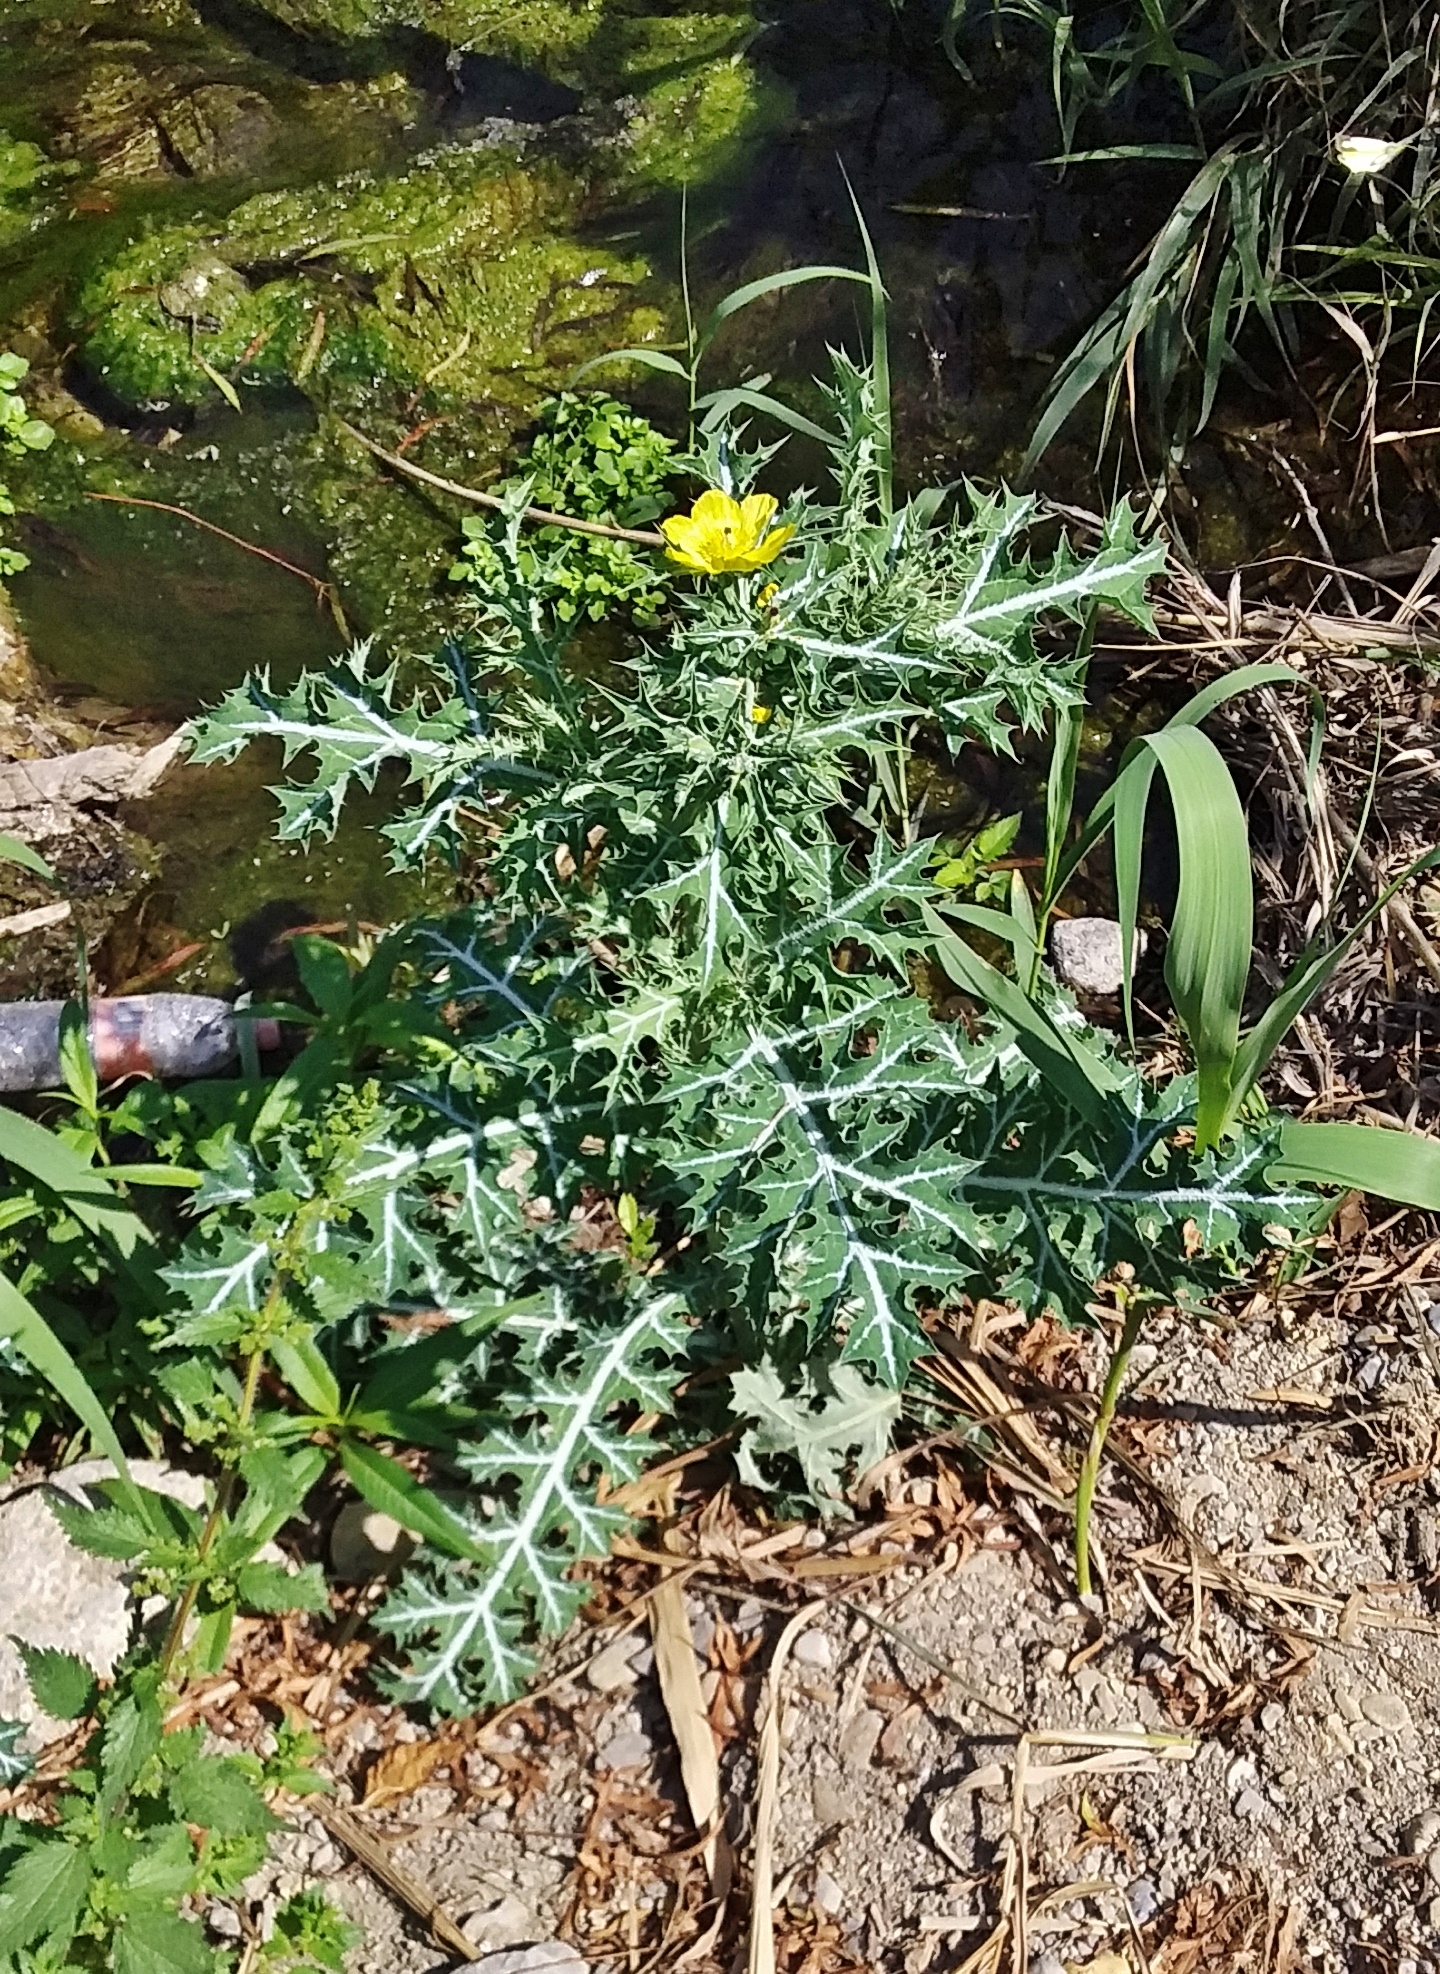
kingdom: Plantae
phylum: Tracheophyta
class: Magnoliopsida
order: Ranunculales
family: Papaveraceae
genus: Argemone
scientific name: Argemone mexicana
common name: Mexican poppy
